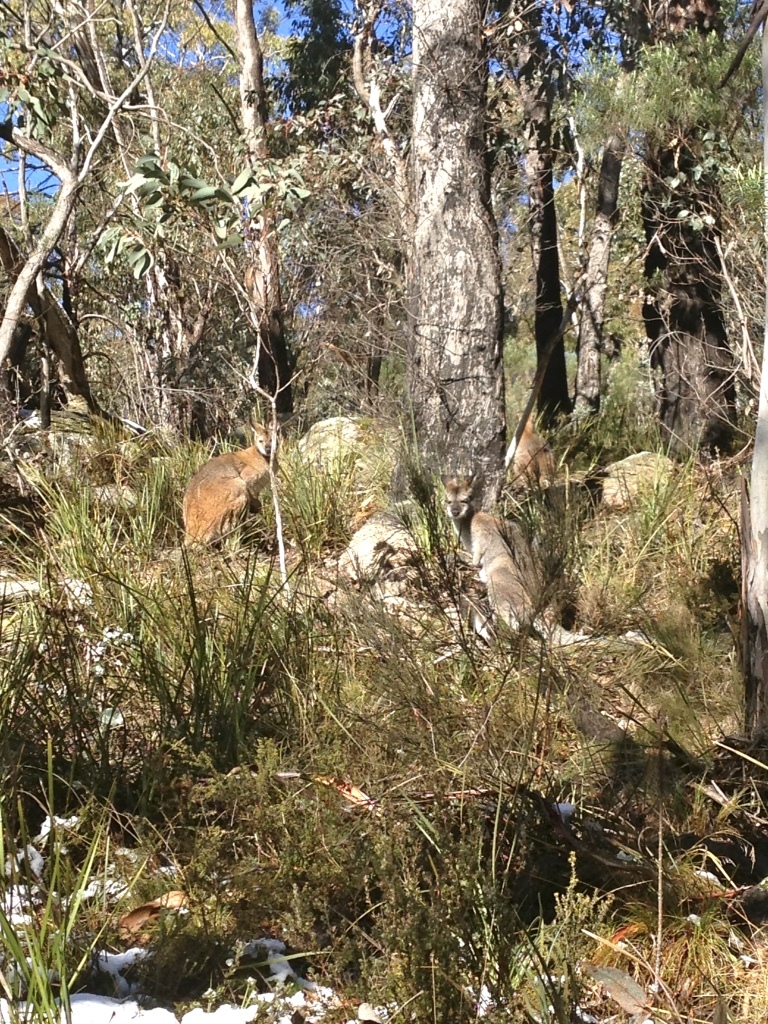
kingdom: Animalia
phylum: Chordata
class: Mammalia
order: Diprotodontia
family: Macropodidae
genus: Notamacropus
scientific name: Notamacropus rufogriseus
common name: Red-necked wallaby
